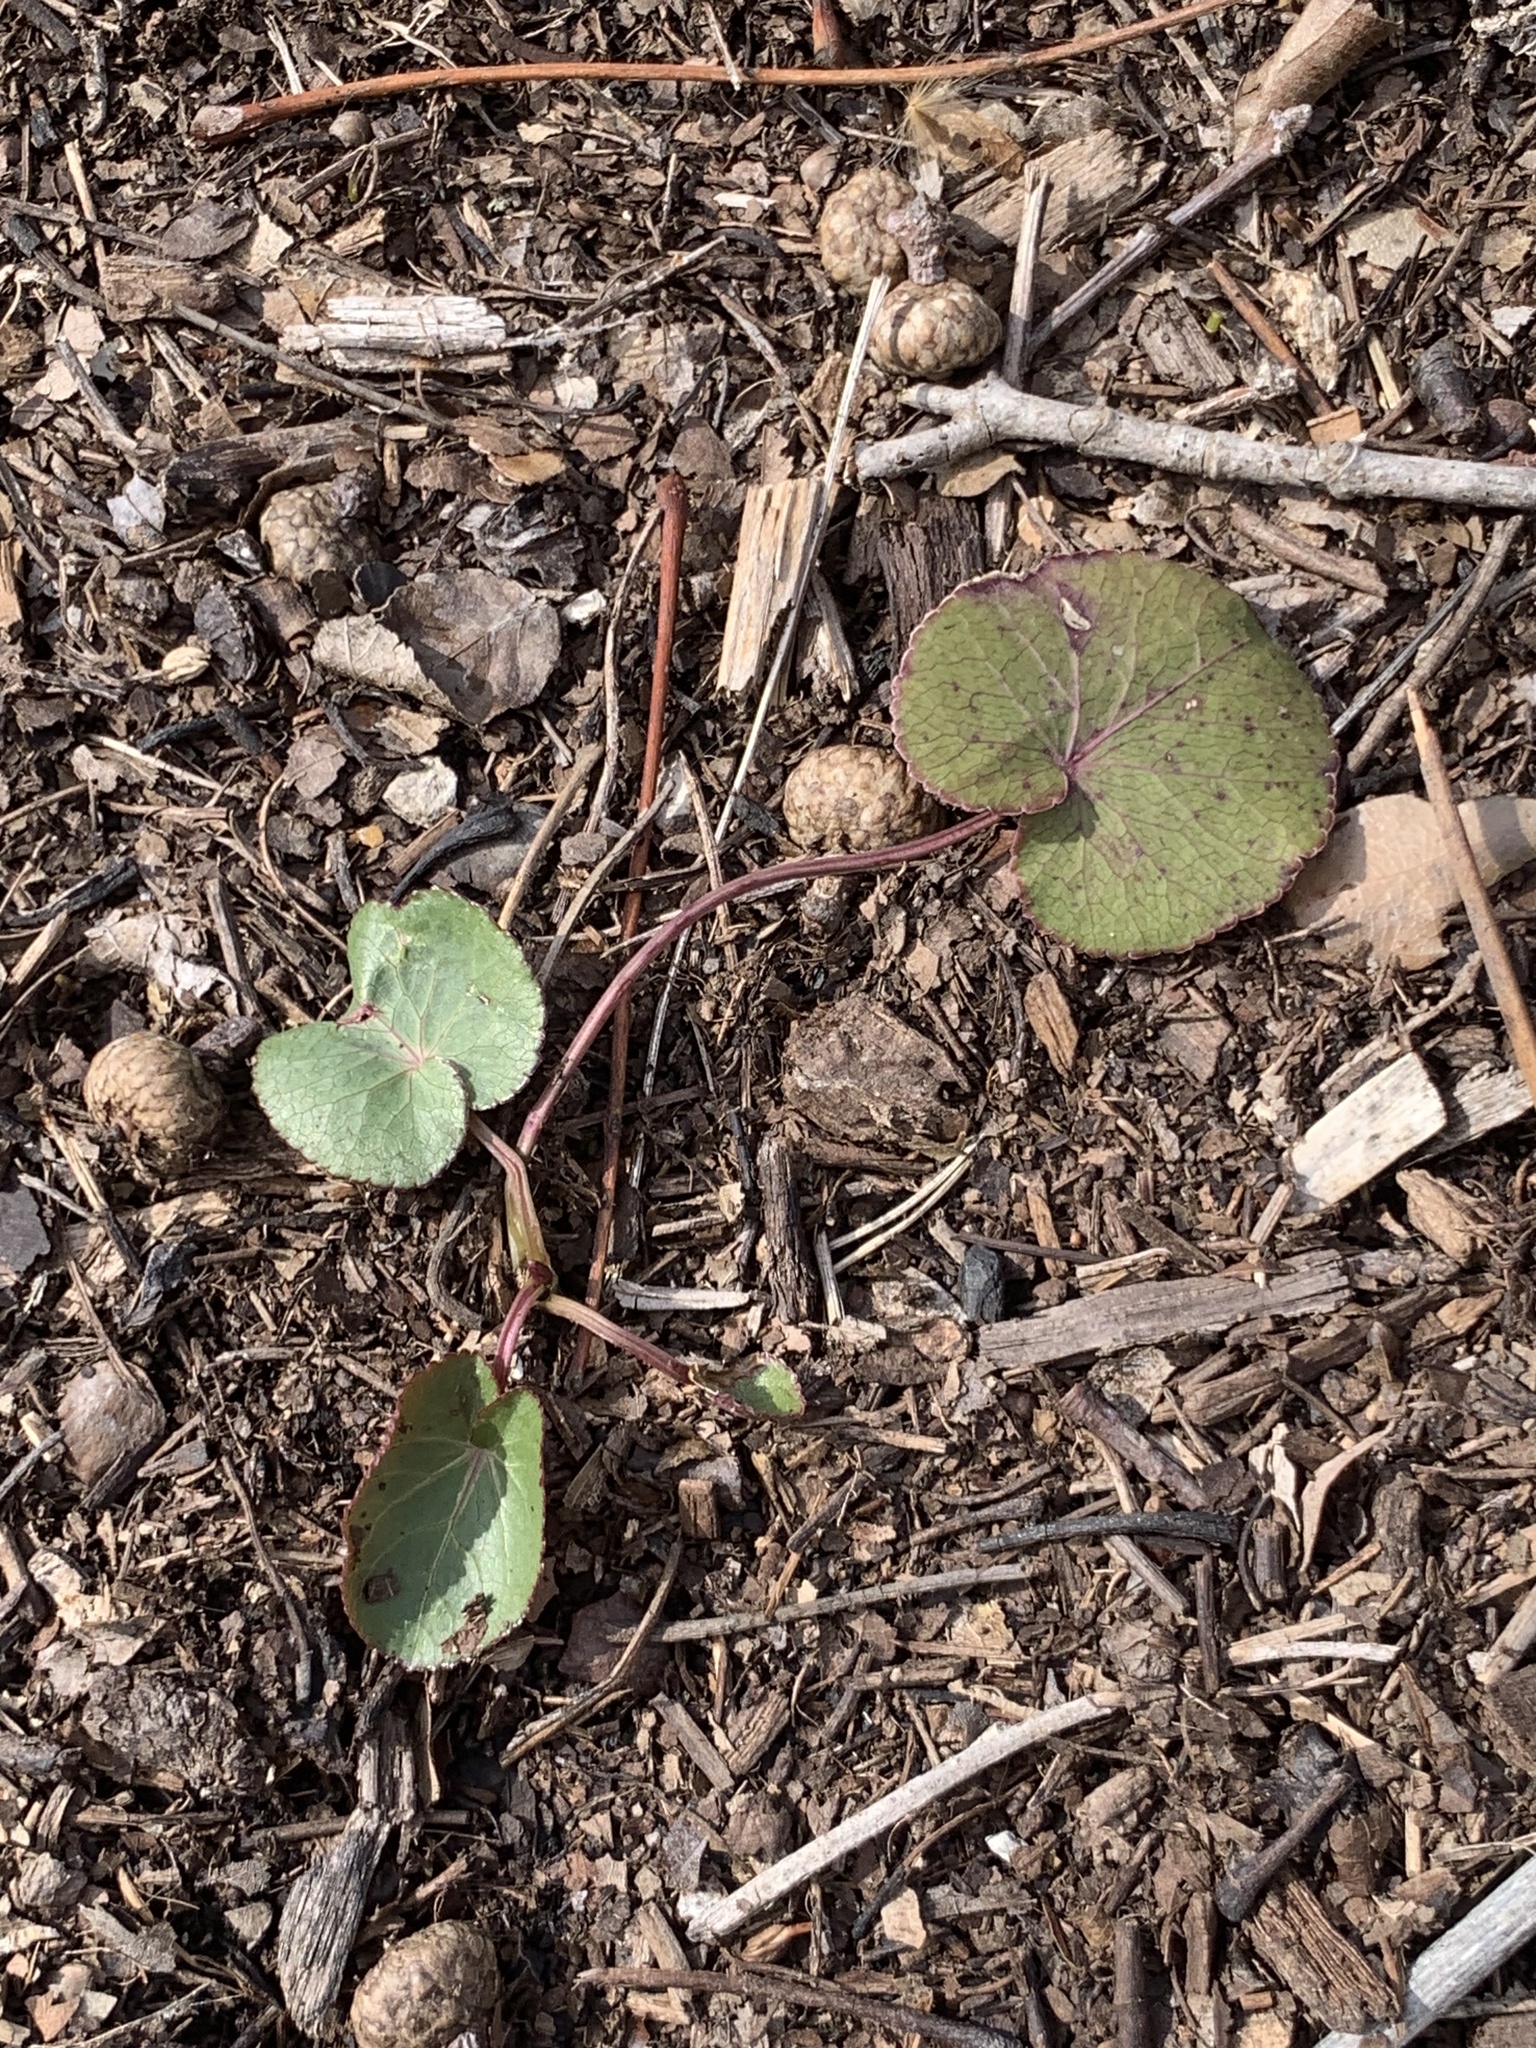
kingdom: Plantae
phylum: Tracheophyta
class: Magnoliopsida
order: Apiales
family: Apiaceae
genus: Zizia
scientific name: Zizia aptera
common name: Heart-leaved alexanders
